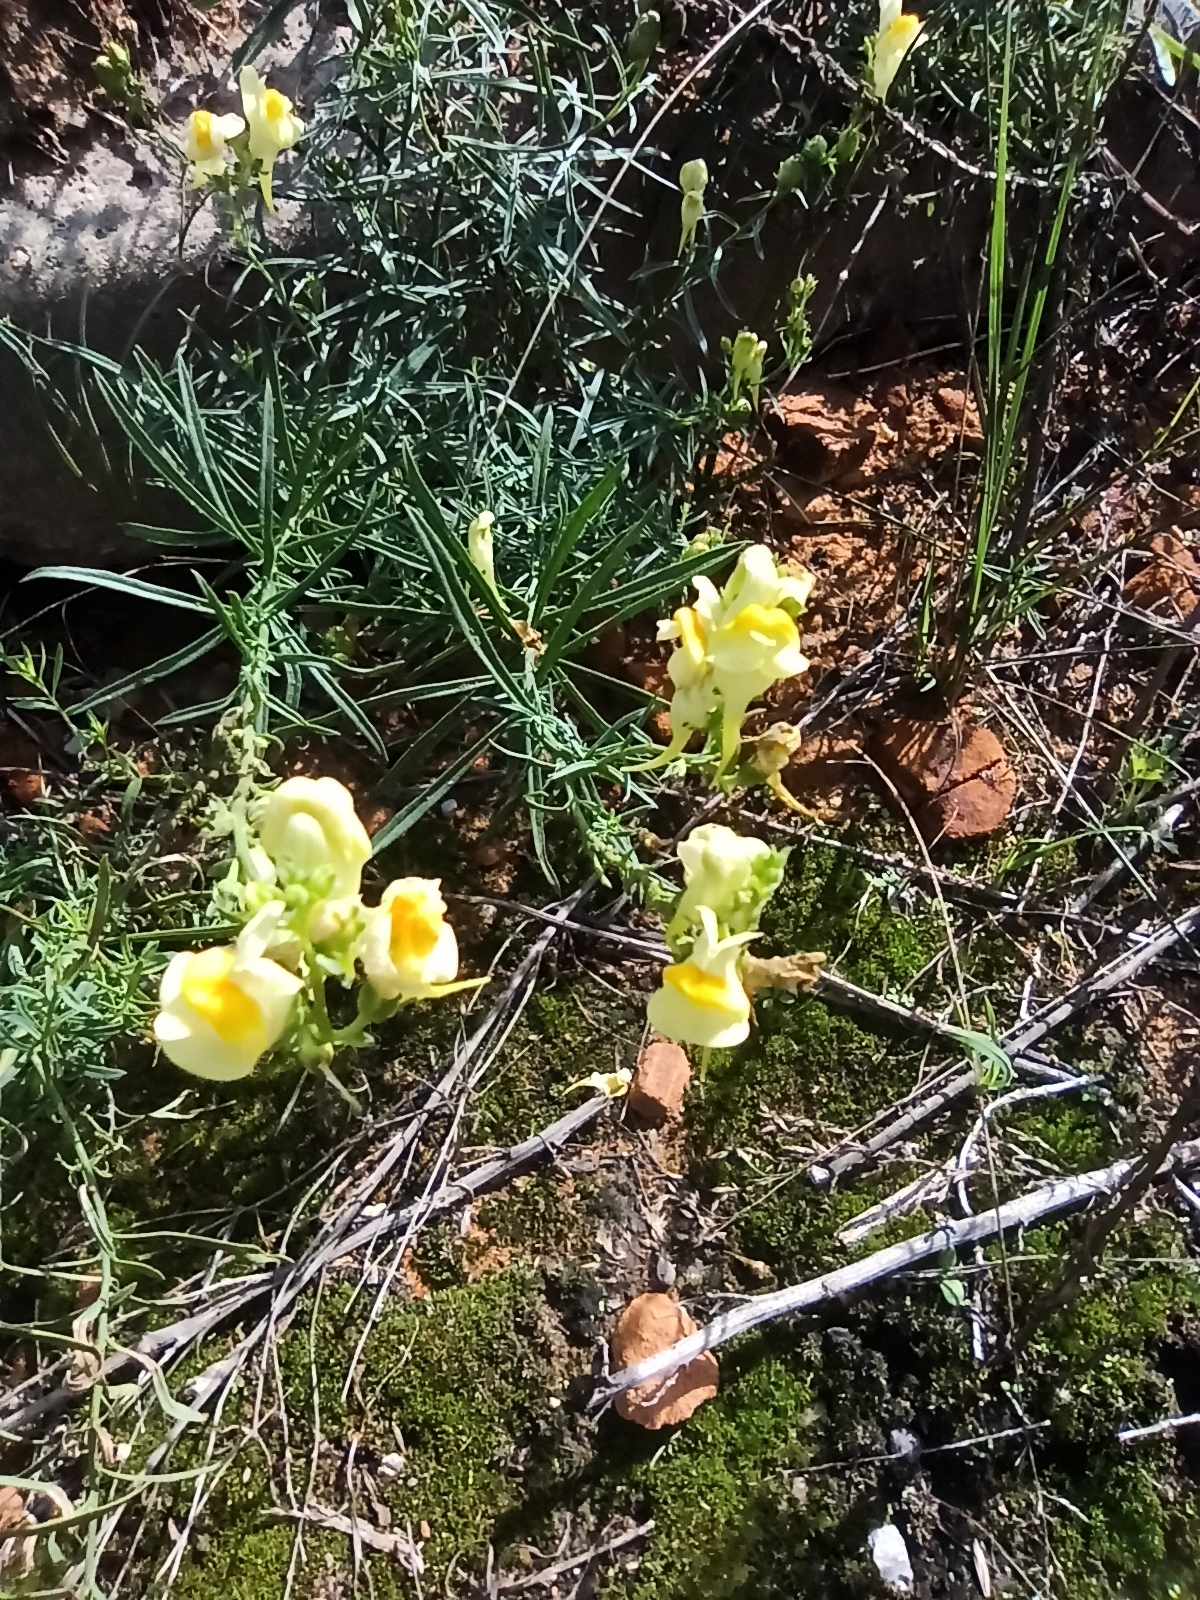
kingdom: Plantae
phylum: Tracheophyta
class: Magnoliopsida
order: Lamiales
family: Plantaginaceae
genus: Linaria
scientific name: Linaria vulgaris
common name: Butter and eggs
